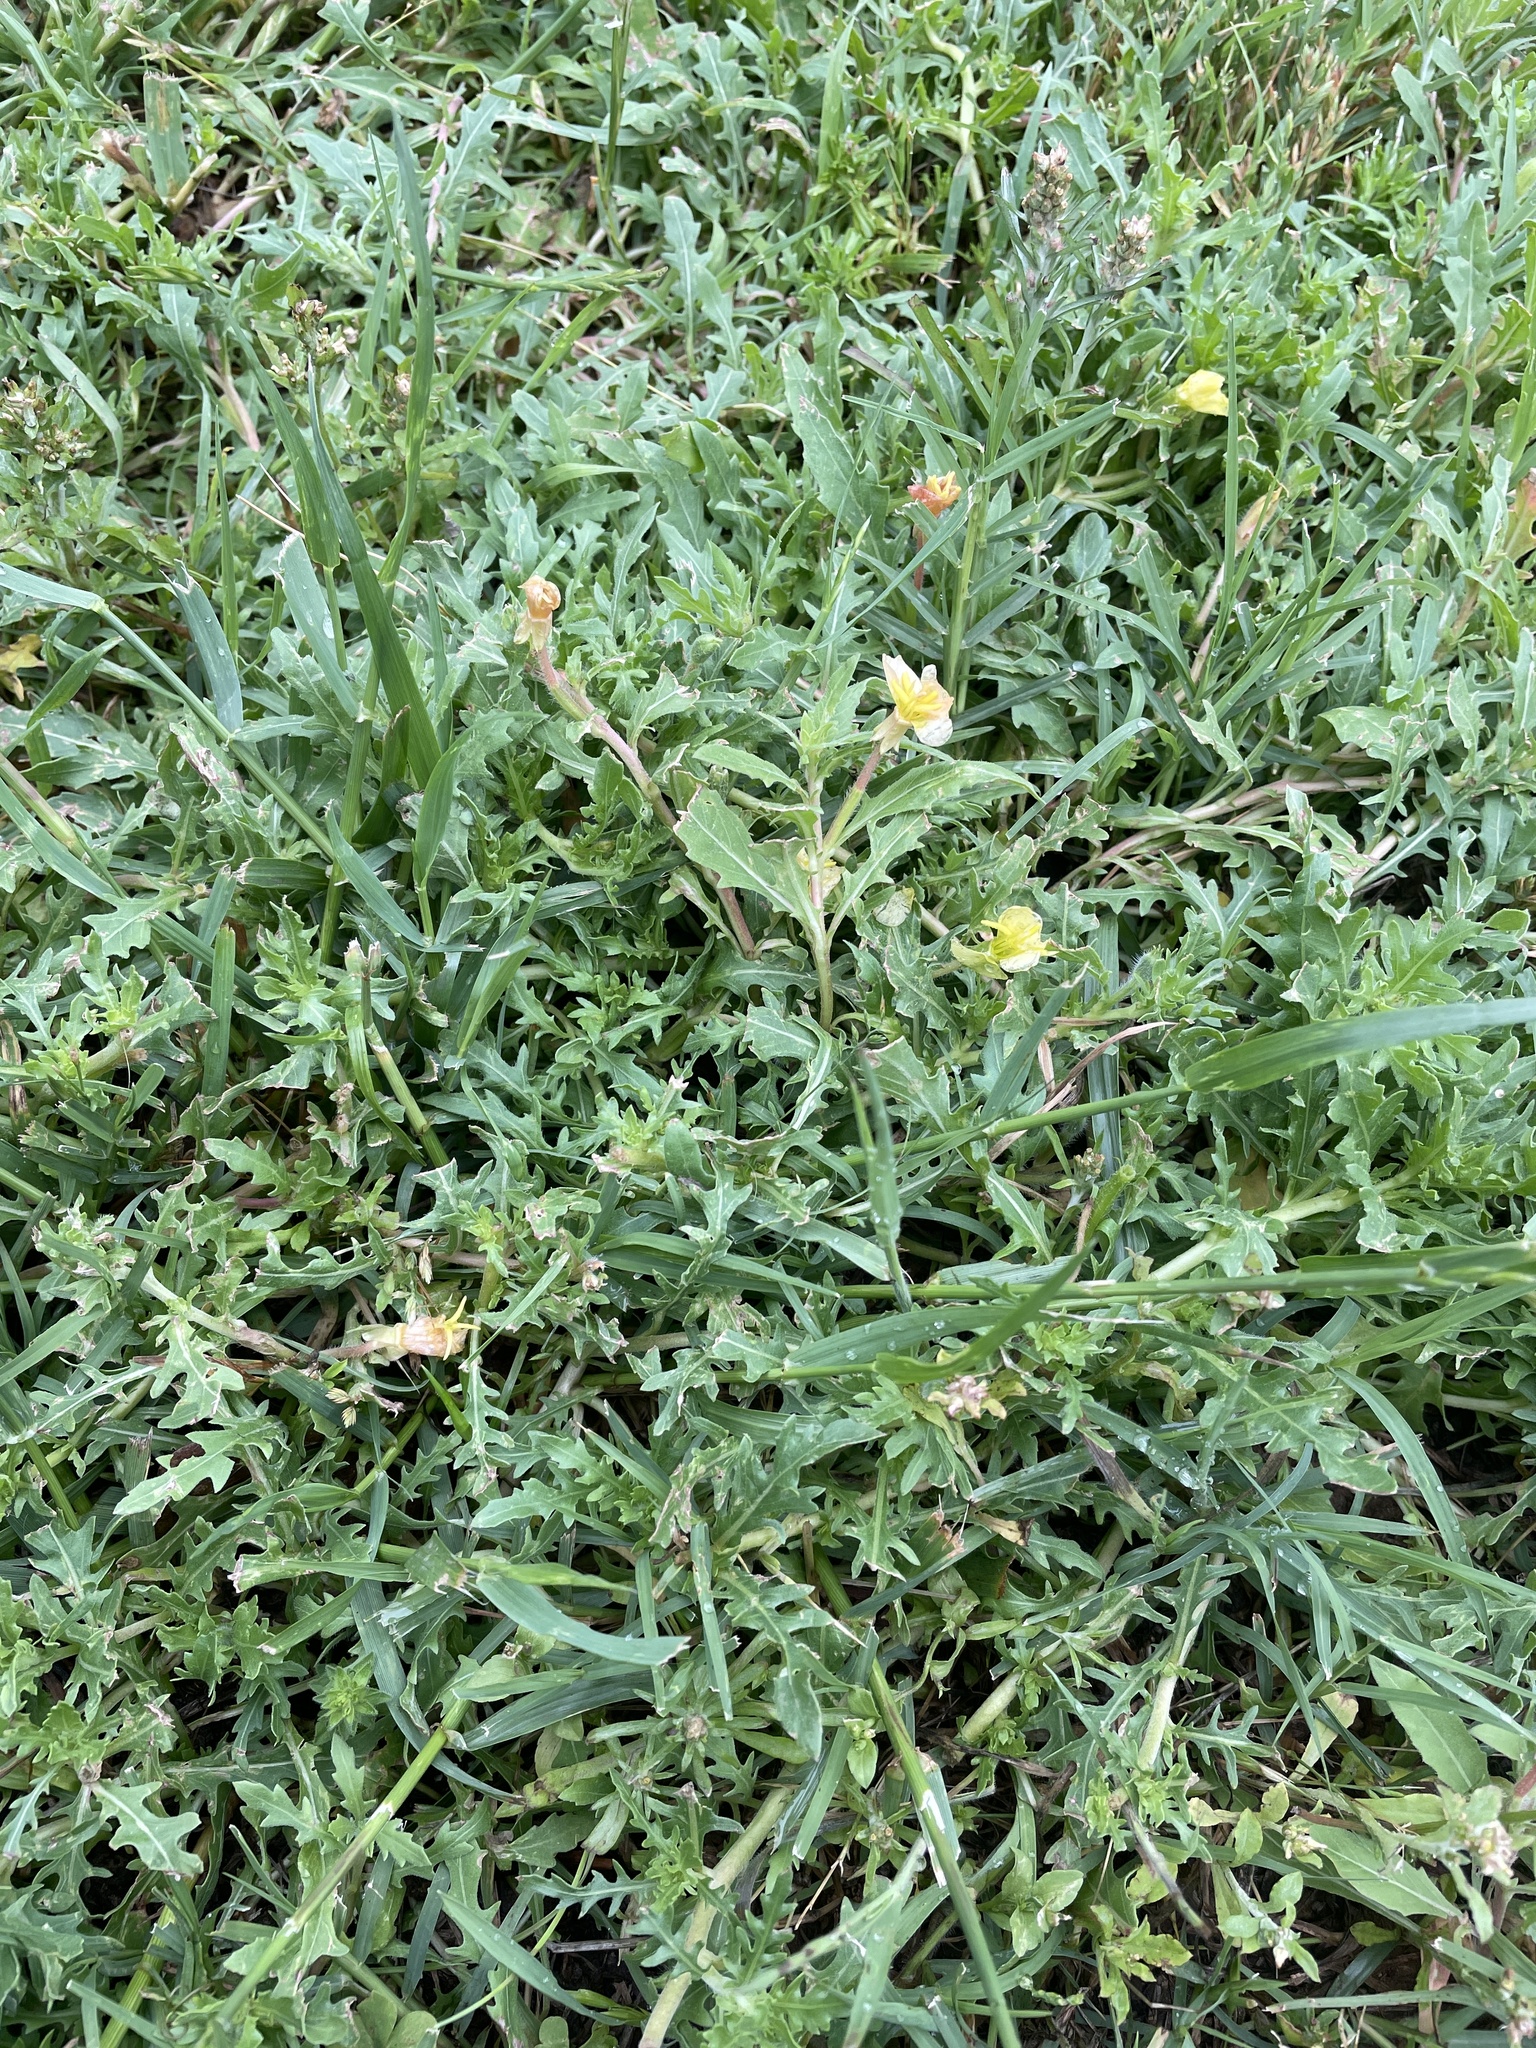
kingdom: Plantae
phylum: Tracheophyta
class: Magnoliopsida
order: Myrtales
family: Onagraceae
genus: Oenothera
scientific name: Oenothera laciniata
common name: Cut-leaved evening-primrose
